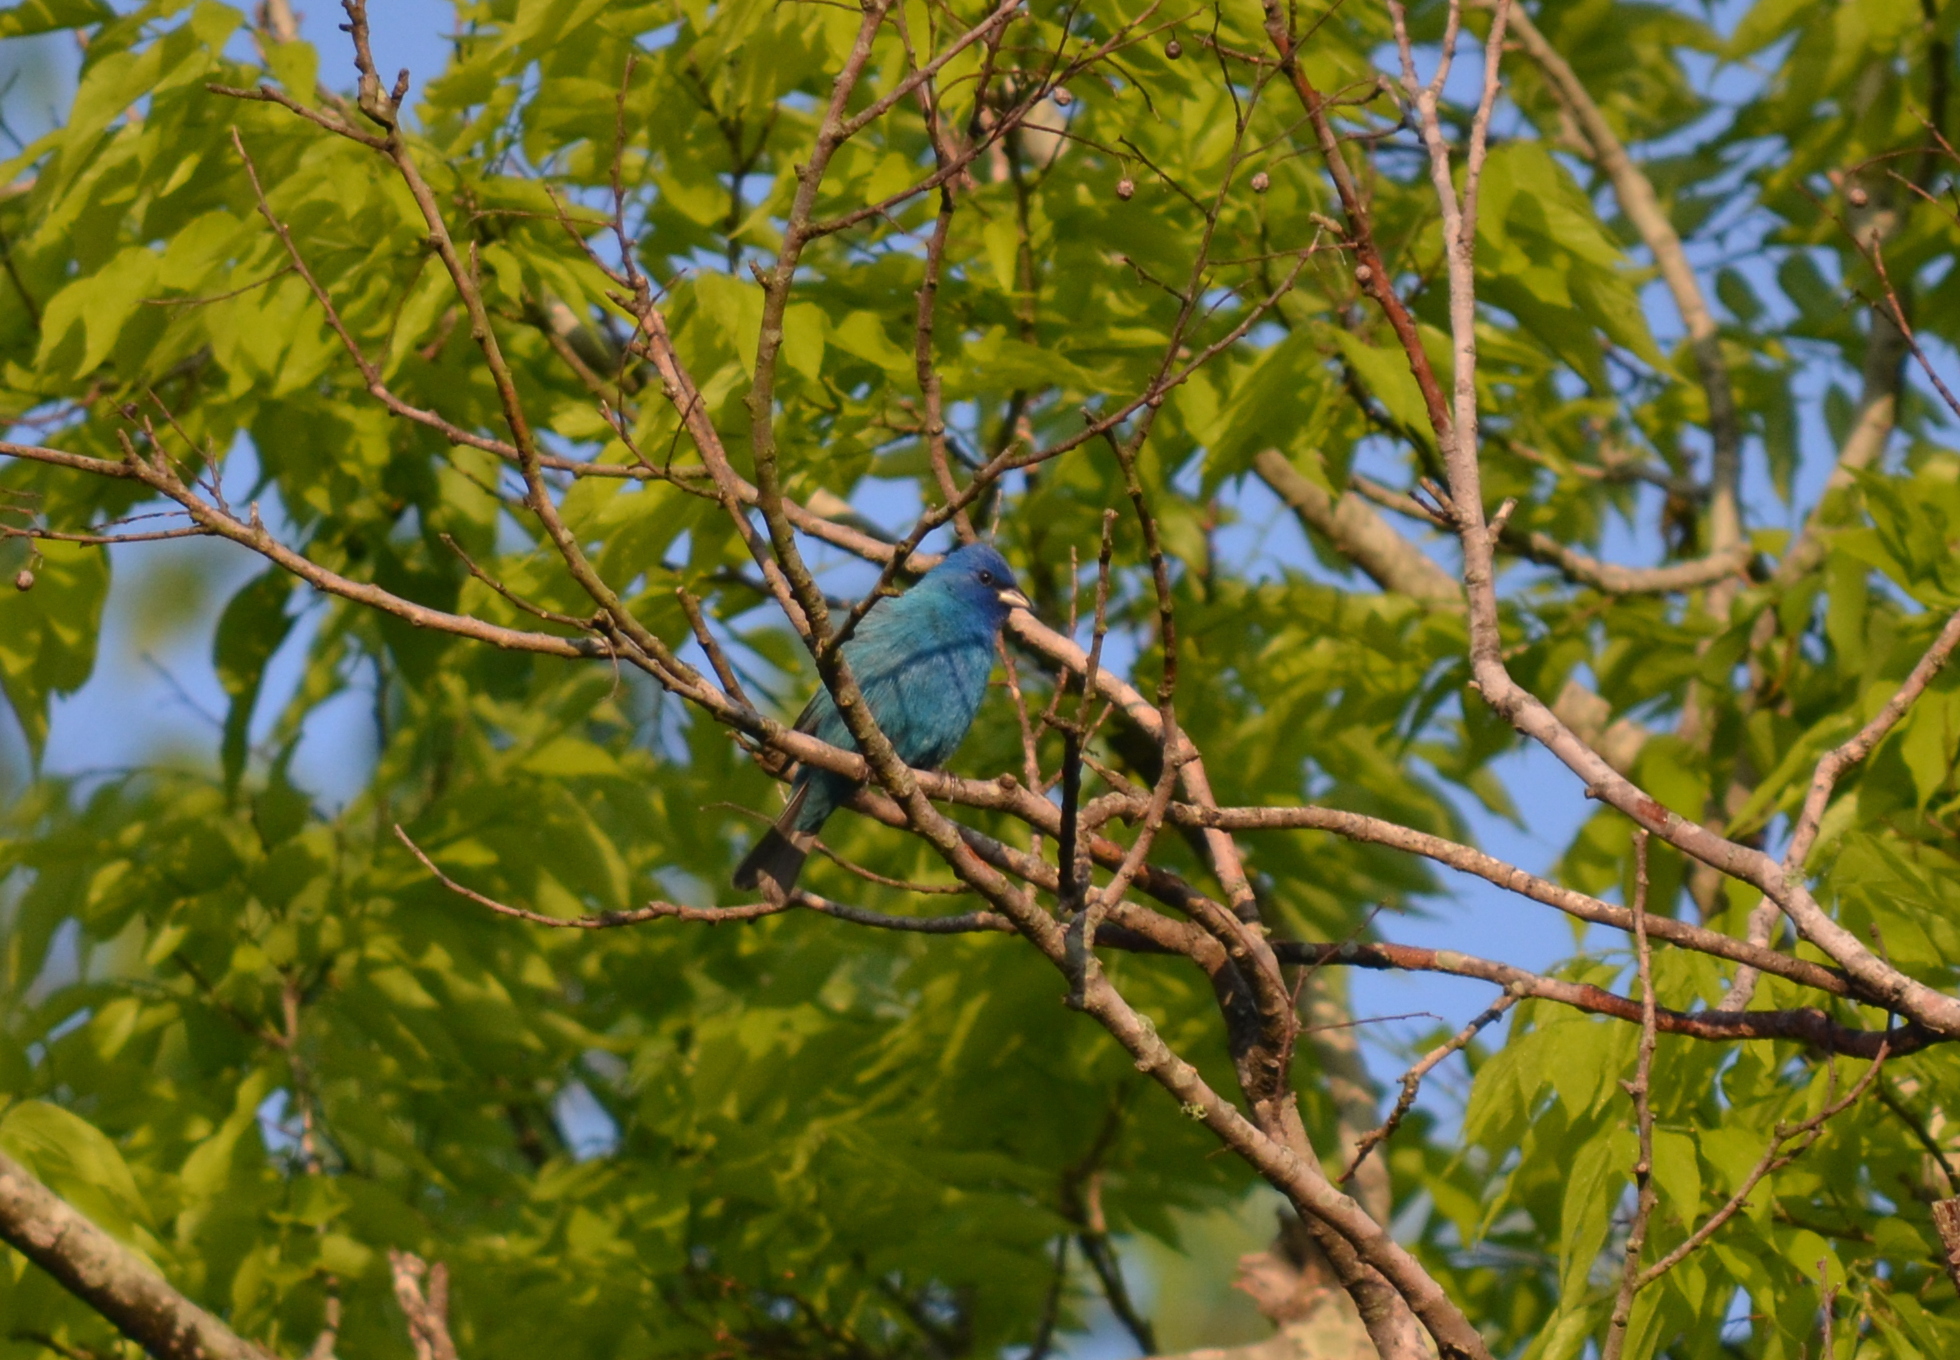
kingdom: Animalia
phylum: Chordata
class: Aves
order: Passeriformes
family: Cardinalidae
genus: Passerina
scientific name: Passerina cyanea
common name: Indigo bunting
